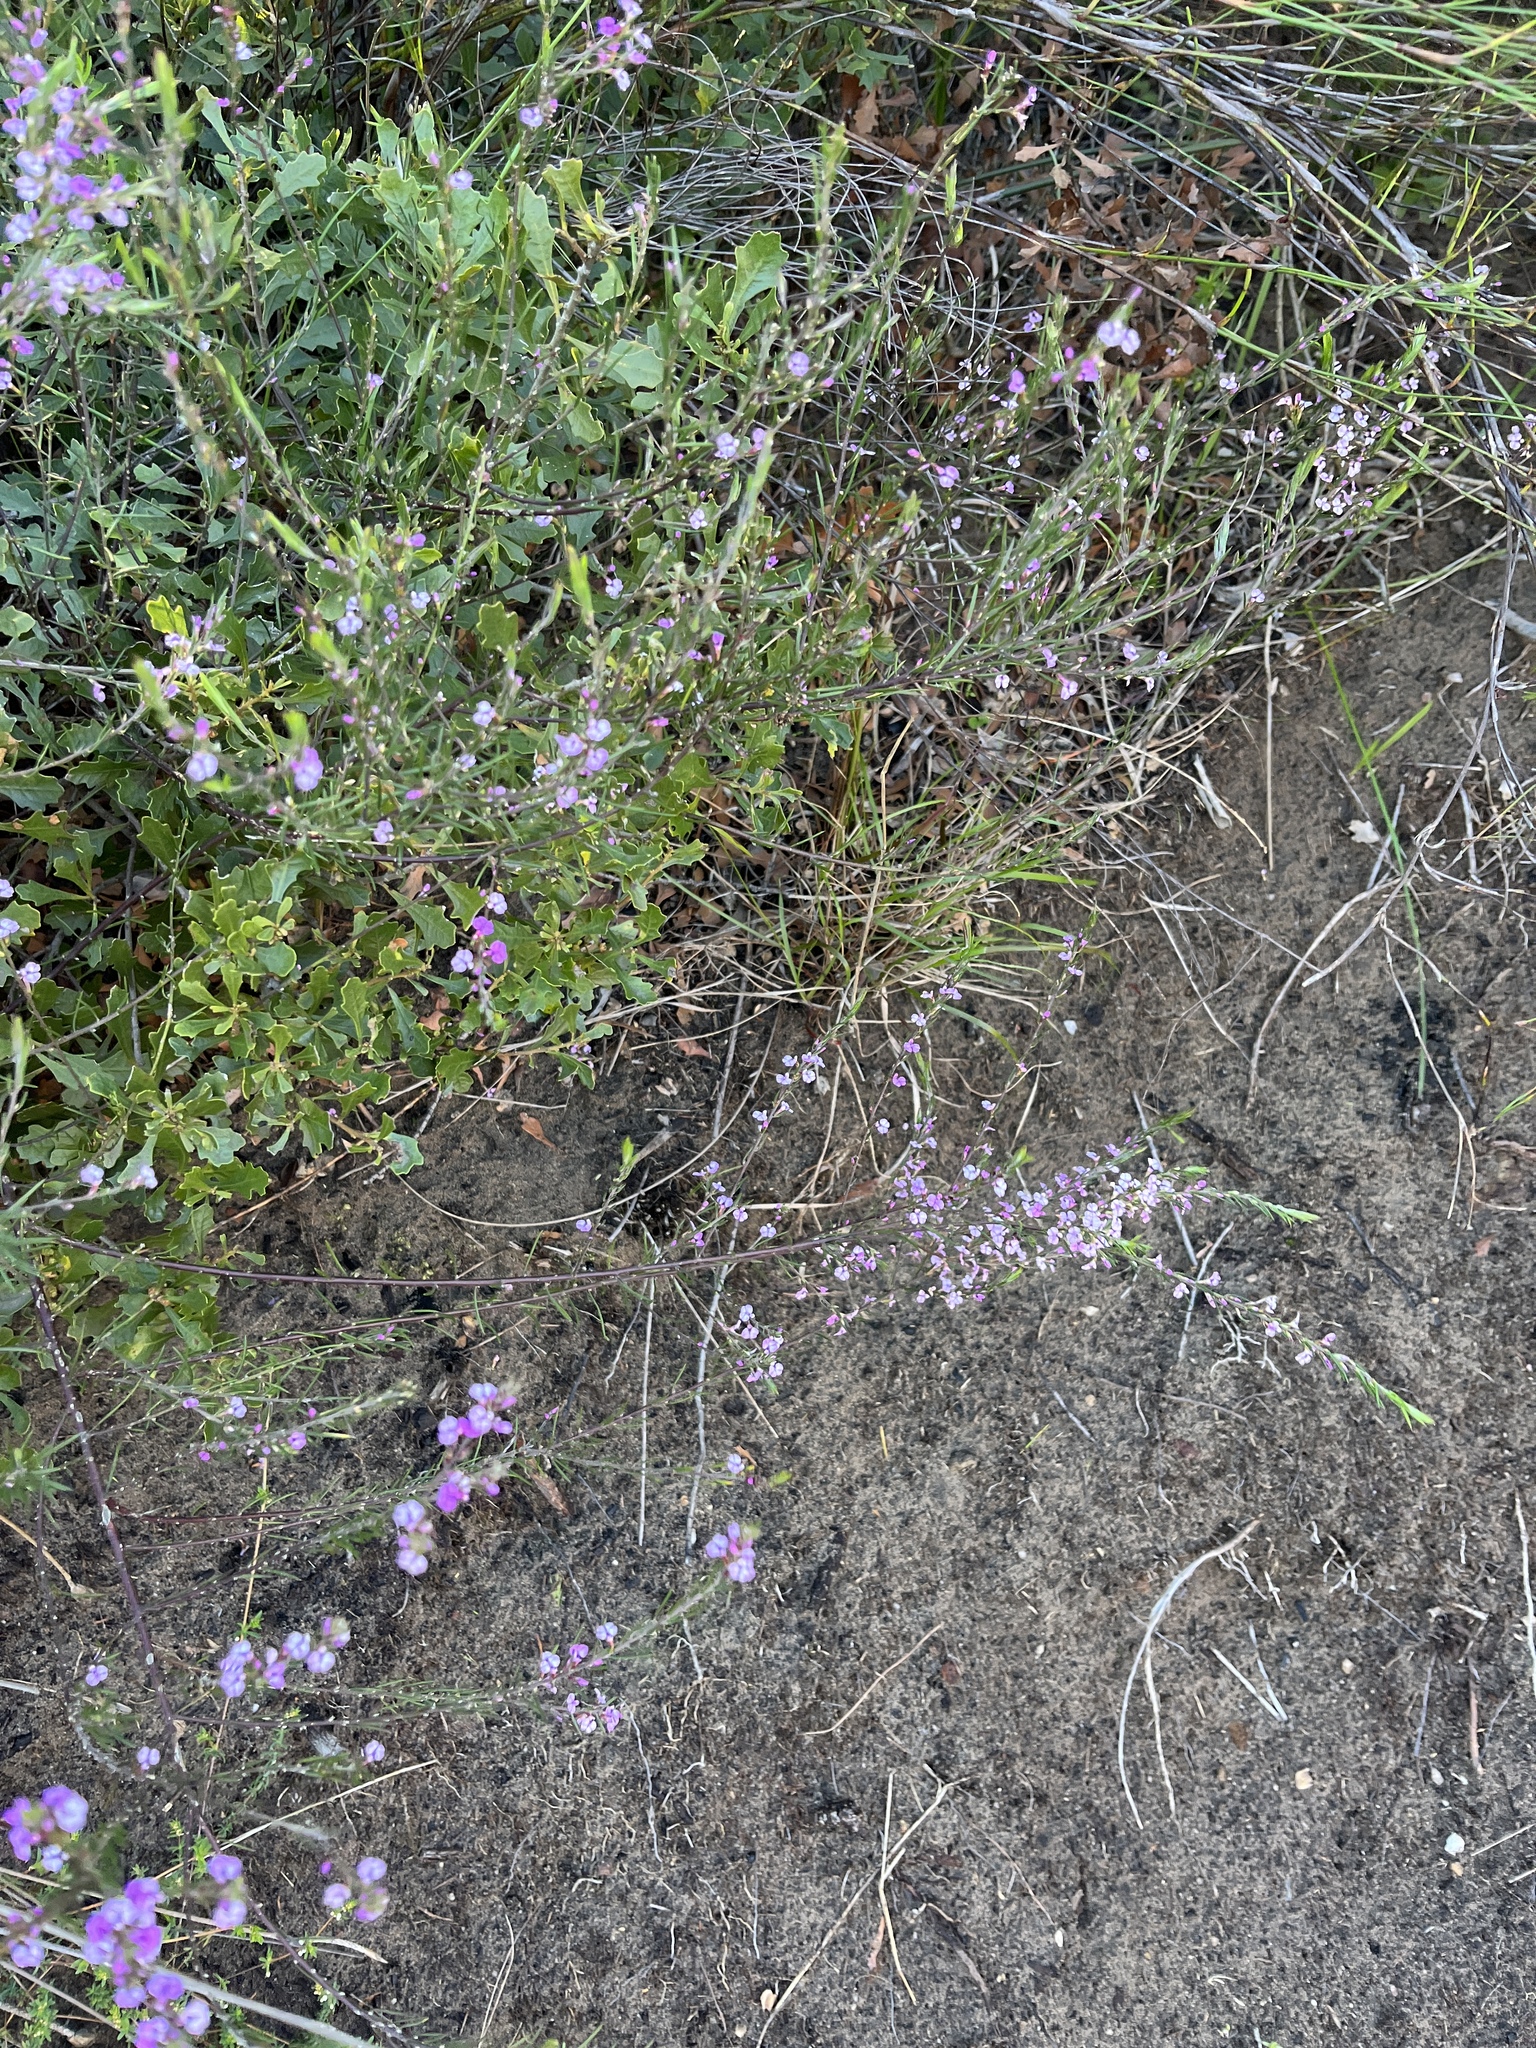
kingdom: Plantae
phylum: Tracheophyta
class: Magnoliopsida
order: Fabales
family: Polygalaceae
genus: Muraltia
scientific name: Muraltia filiformis
